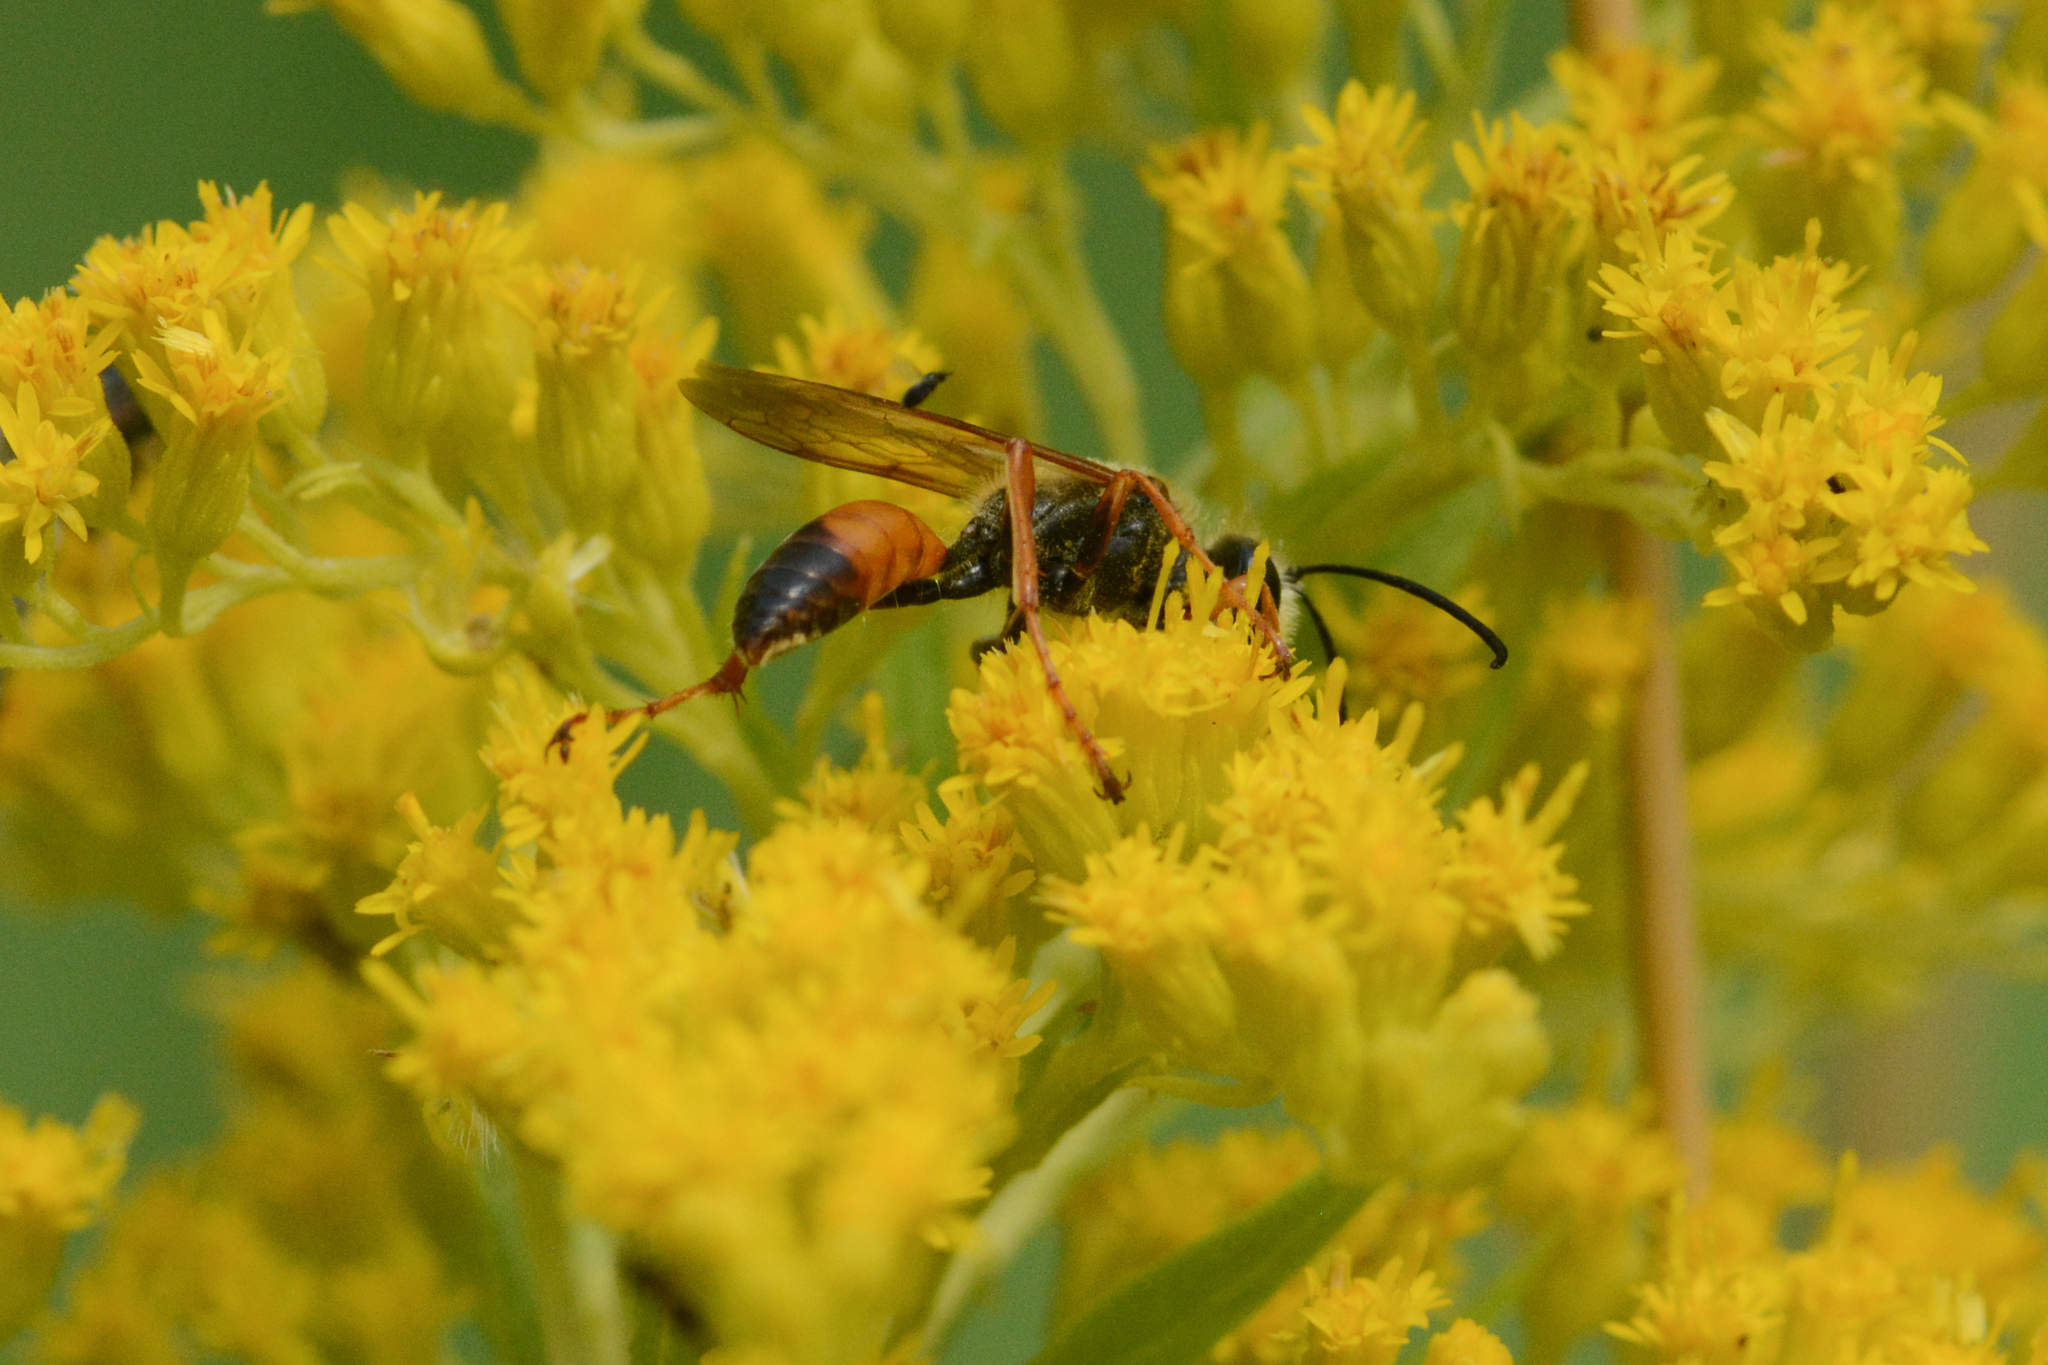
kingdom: Animalia
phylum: Arthropoda
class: Insecta
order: Hymenoptera
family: Sphecidae
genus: Sphex
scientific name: Sphex ichneumoneus
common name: Great golden digger wasp
